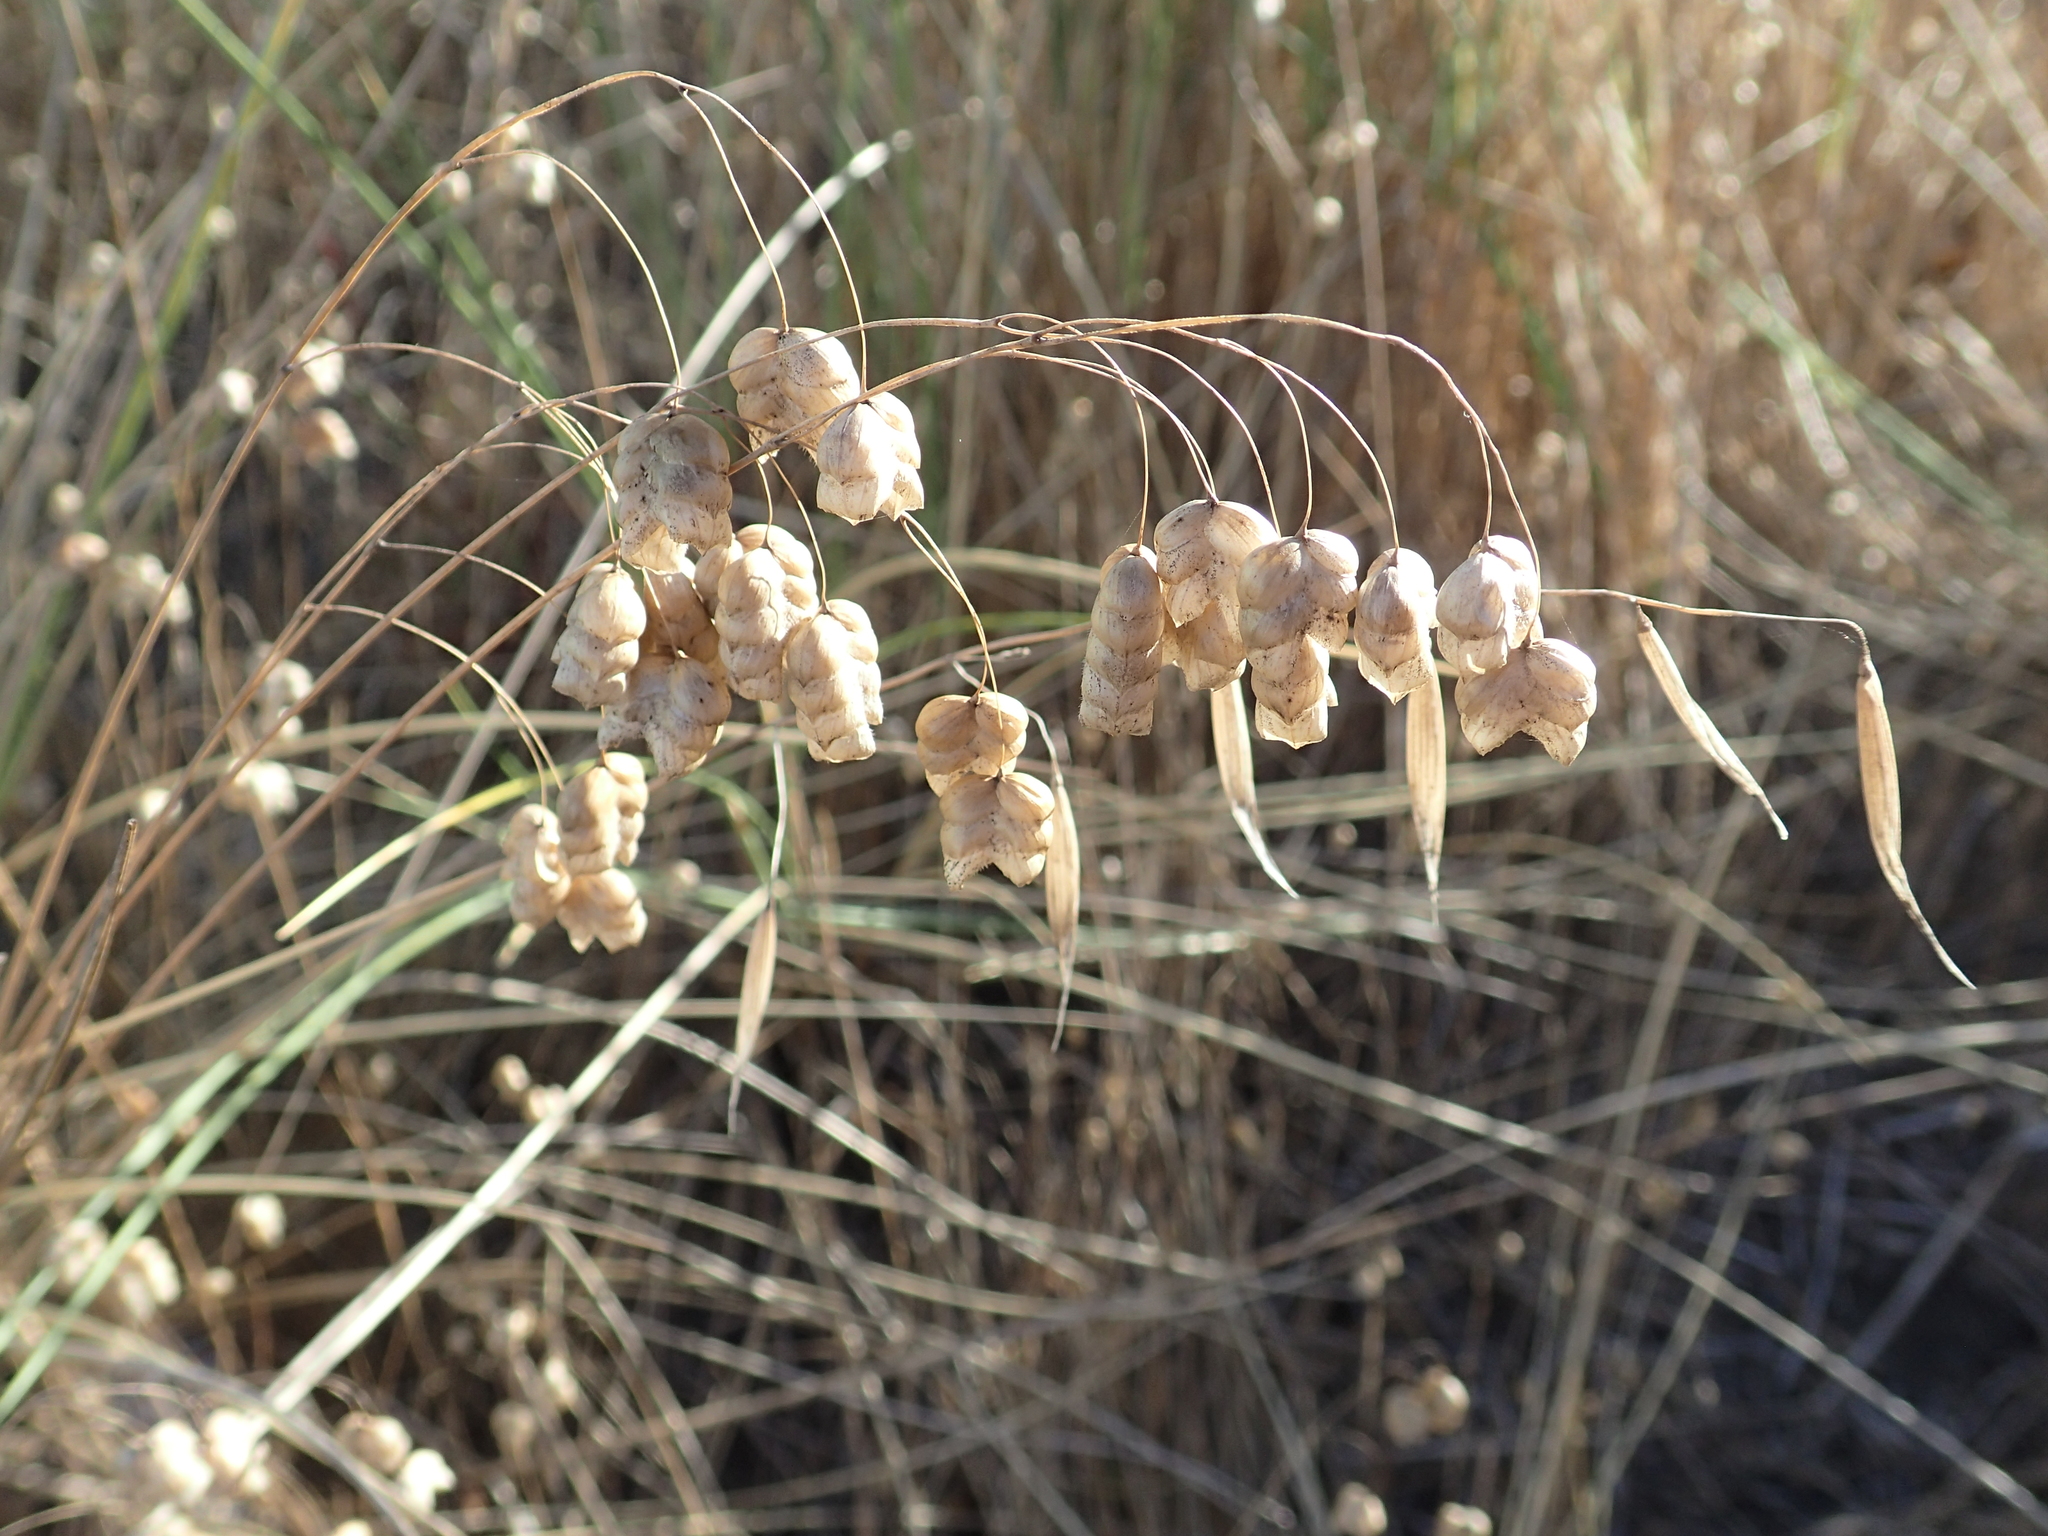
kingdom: Plantae
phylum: Tracheophyta
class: Liliopsida
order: Poales
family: Poaceae
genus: Briza
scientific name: Briza maxima
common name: Big quakinggrass
